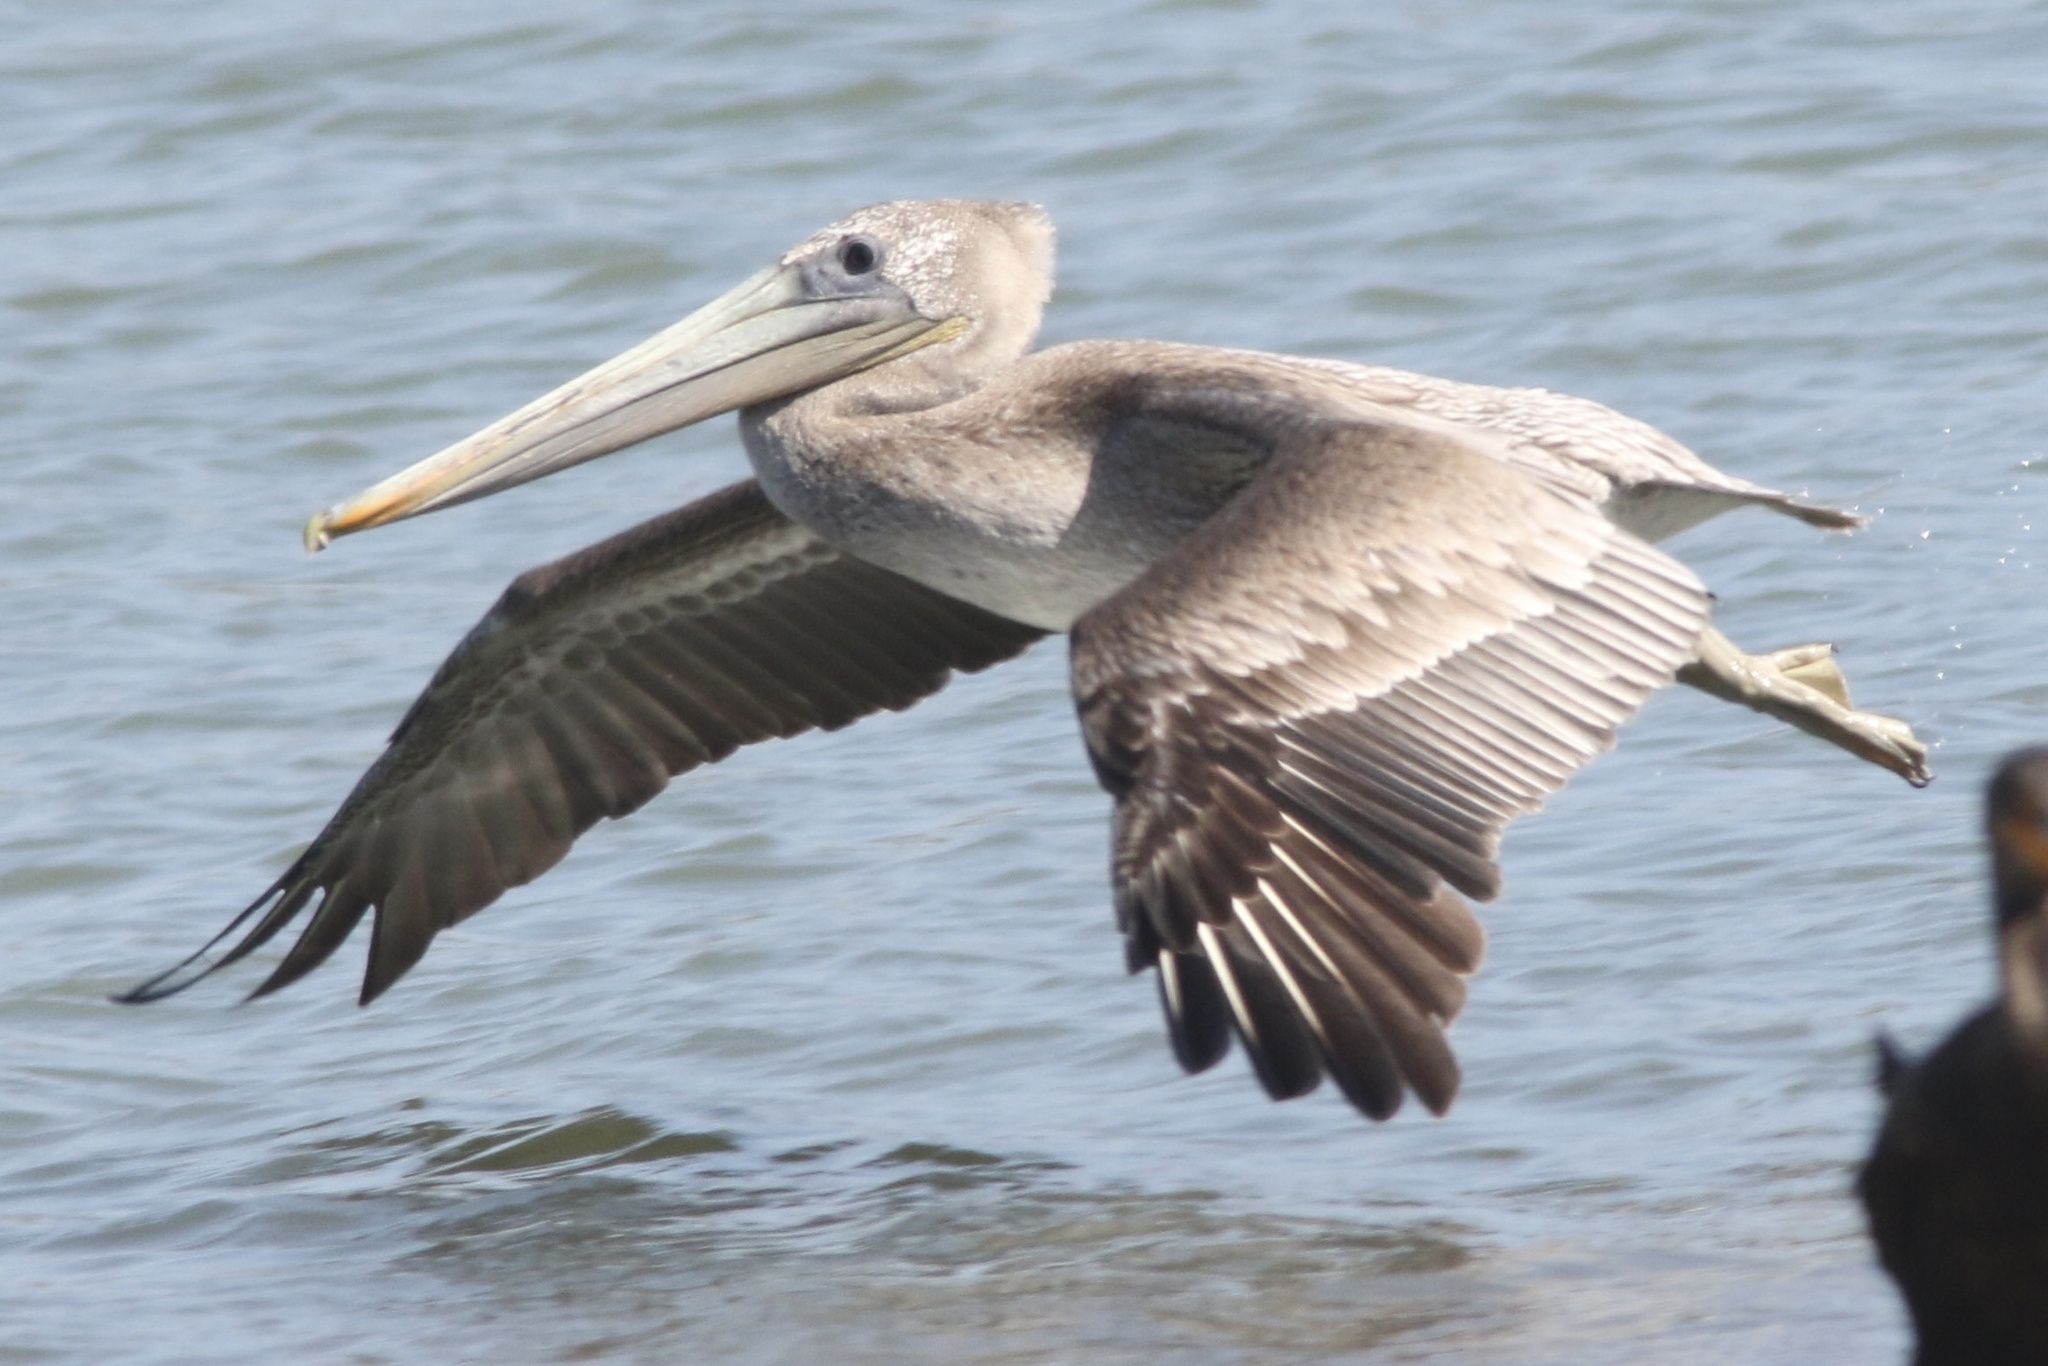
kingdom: Animalia
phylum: Chordata
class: Aves
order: Pelecaniformes
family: Pelecanidae
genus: Pelecanus
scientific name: Pelecanus occidentalis
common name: Brown pelican
